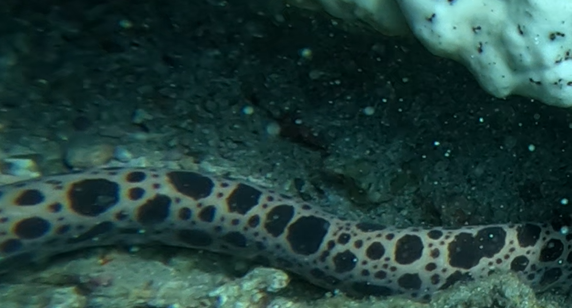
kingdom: Animalia
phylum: Chordata
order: Anguilliformes
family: Muraenidae
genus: Scuticaria
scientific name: Scuticaria tigrina
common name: Tiger moray
